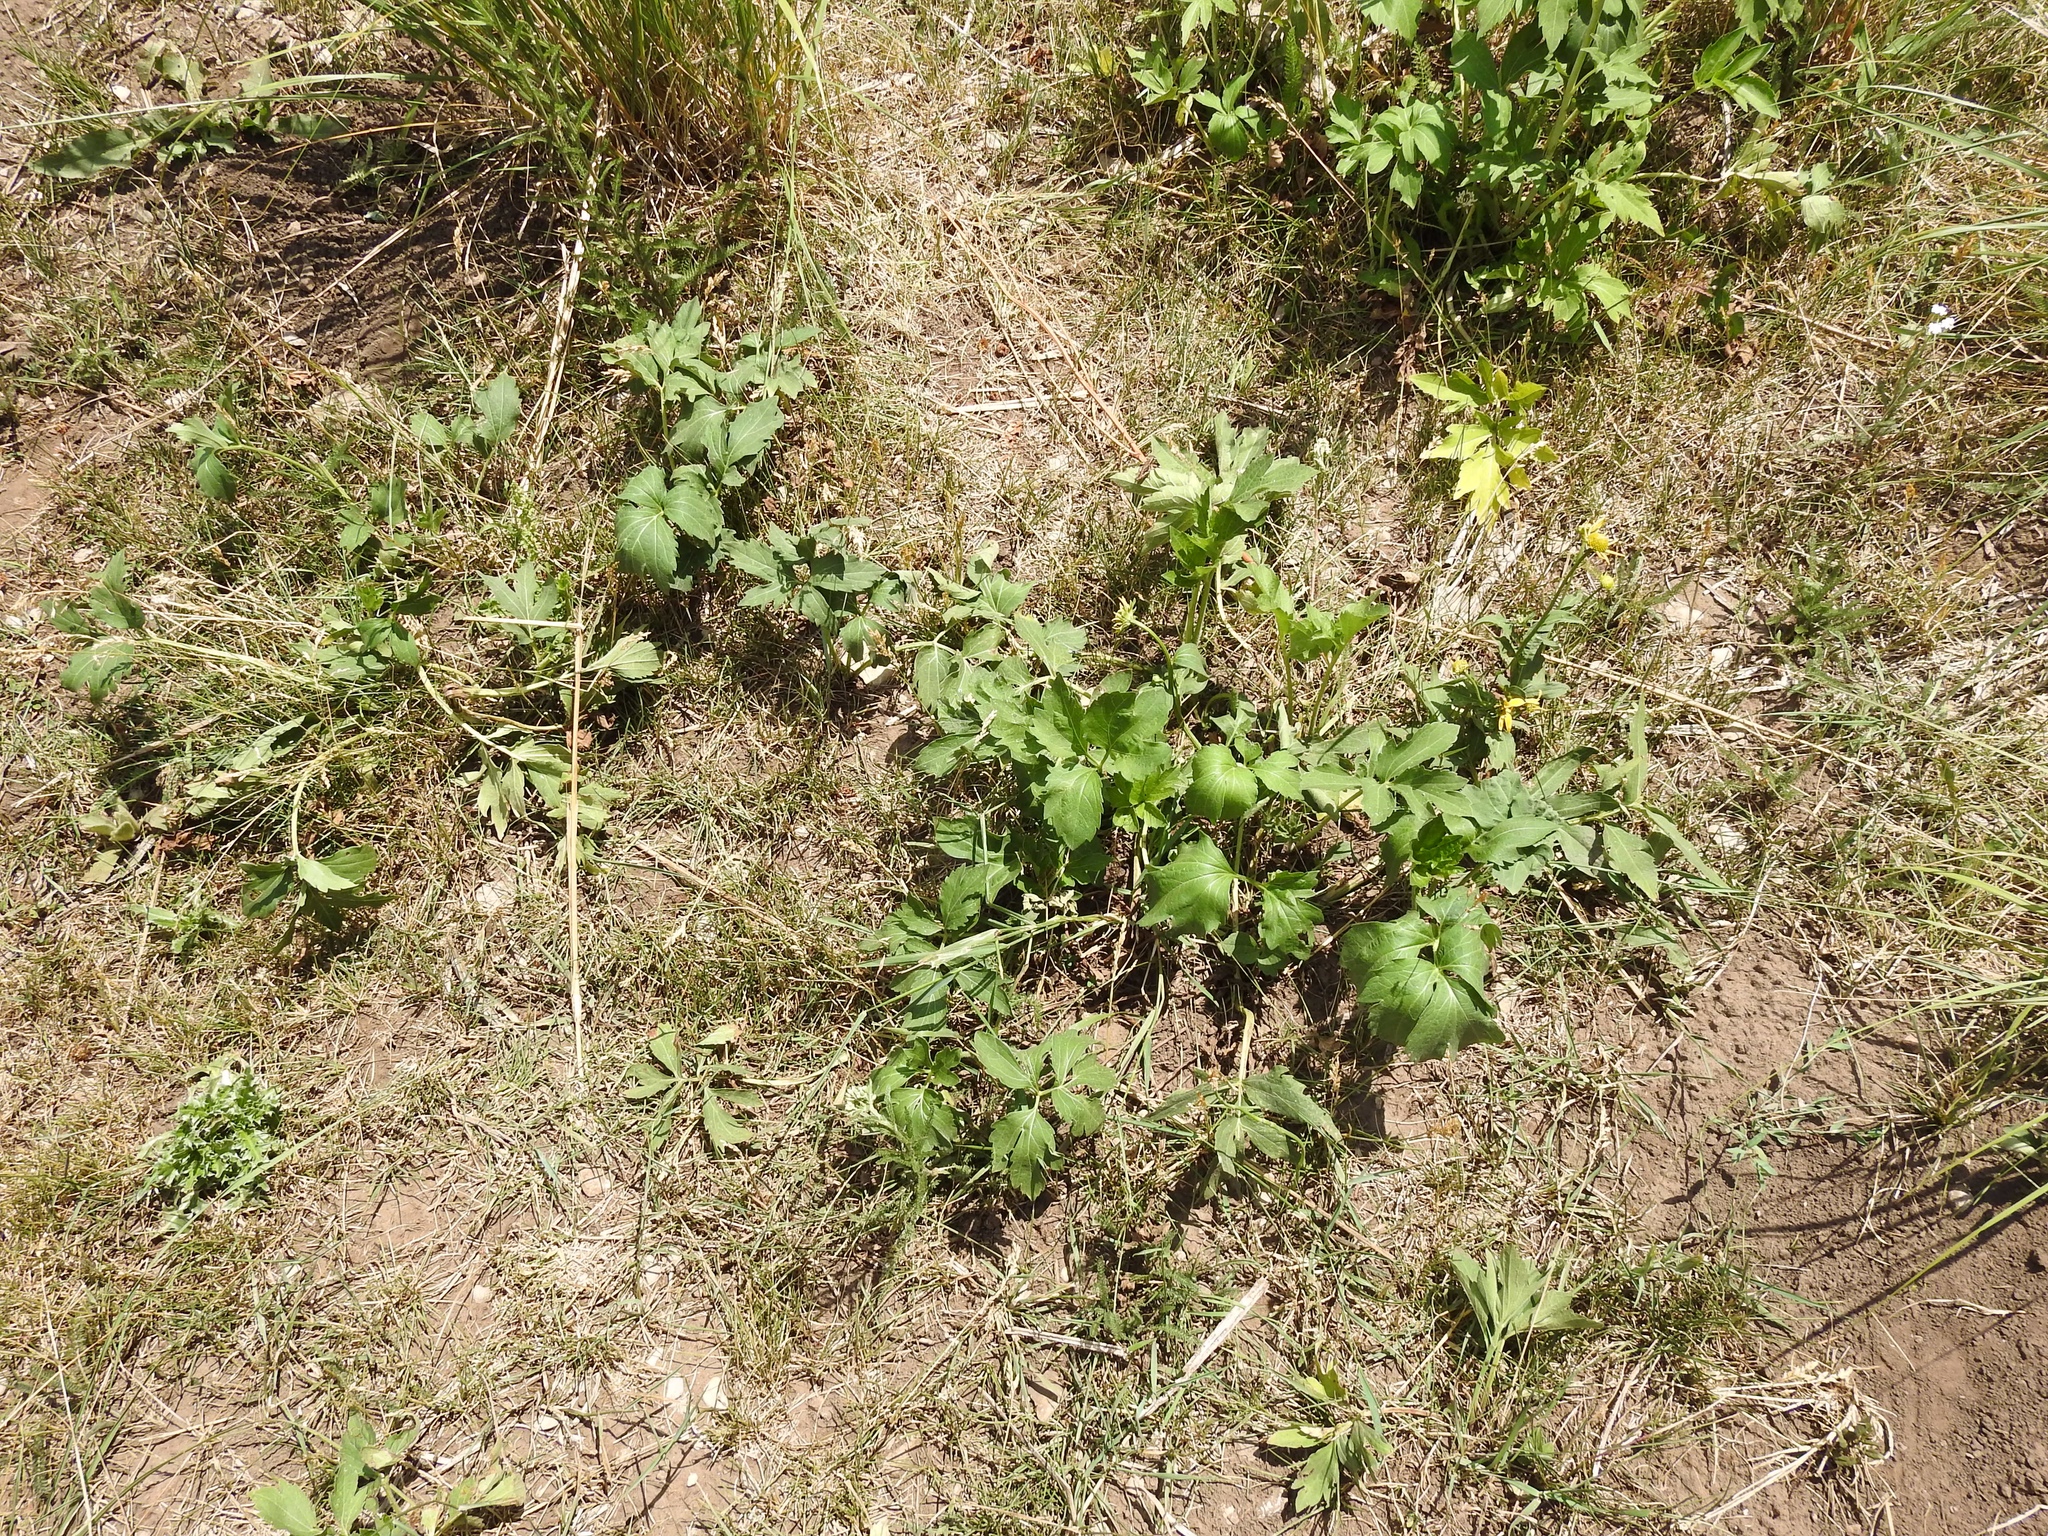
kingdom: Plantae
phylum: Tracheophyta
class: Magnoliopsida
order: Asterales
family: Asteraceae
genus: Rudbeckia
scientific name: Rudbeckia laciniata
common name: Coneflower
